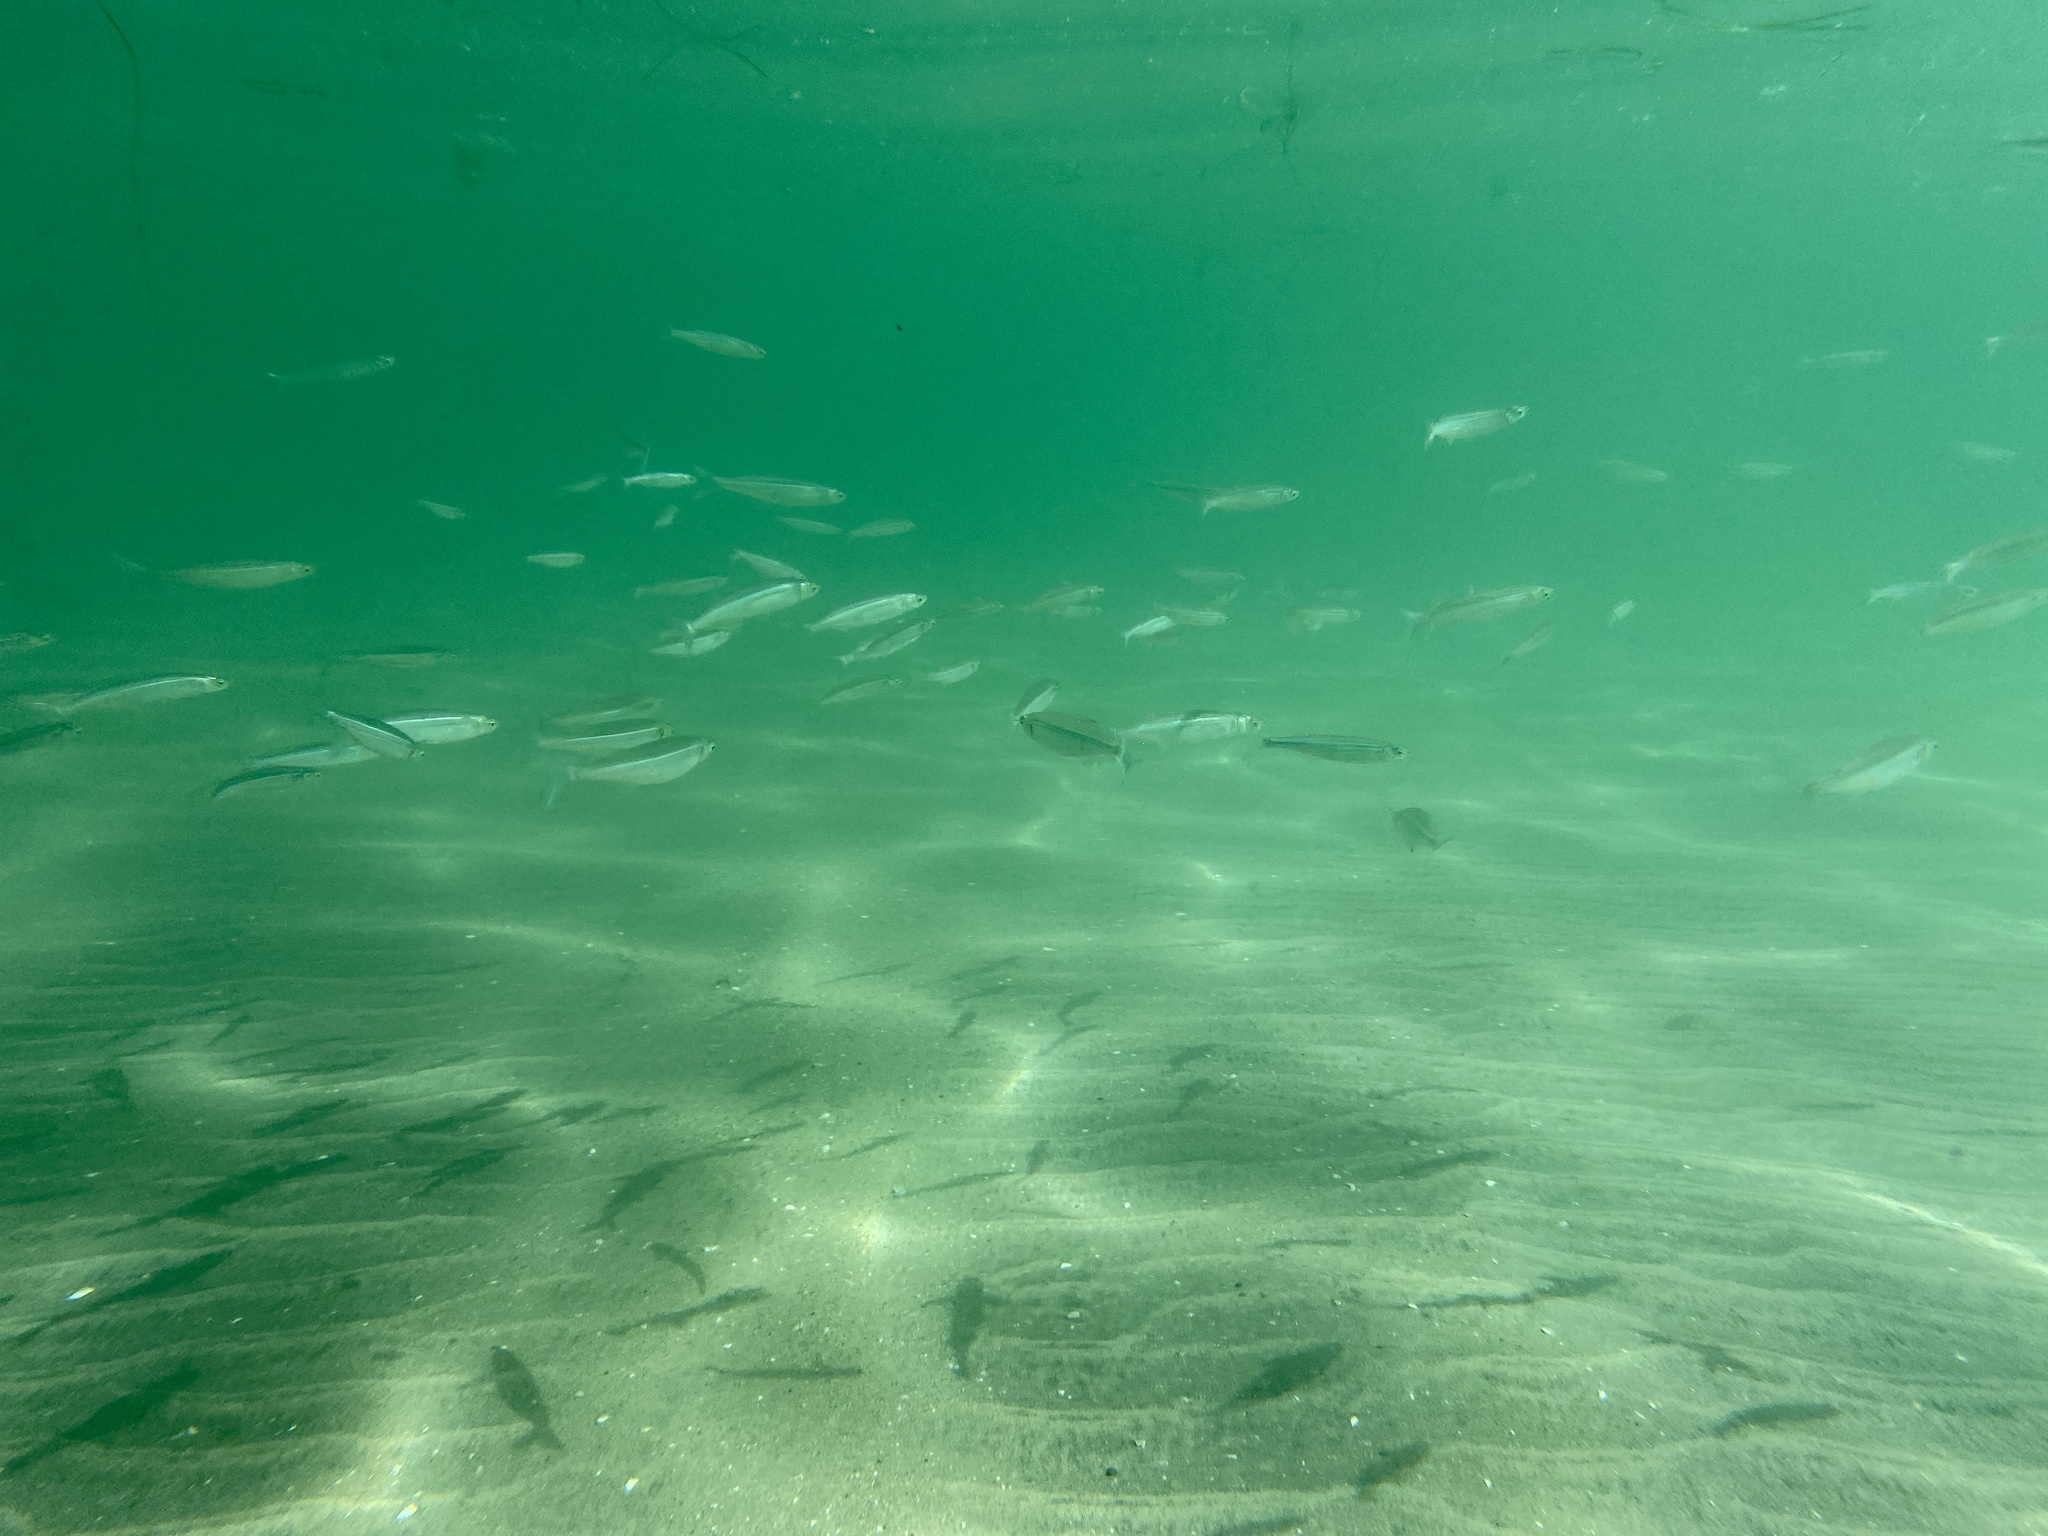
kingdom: Animalia
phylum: Chordata
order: Atheriniformes
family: Atherinopsidae
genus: Atherinops
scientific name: Atherinops affinis
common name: Topsmelt
